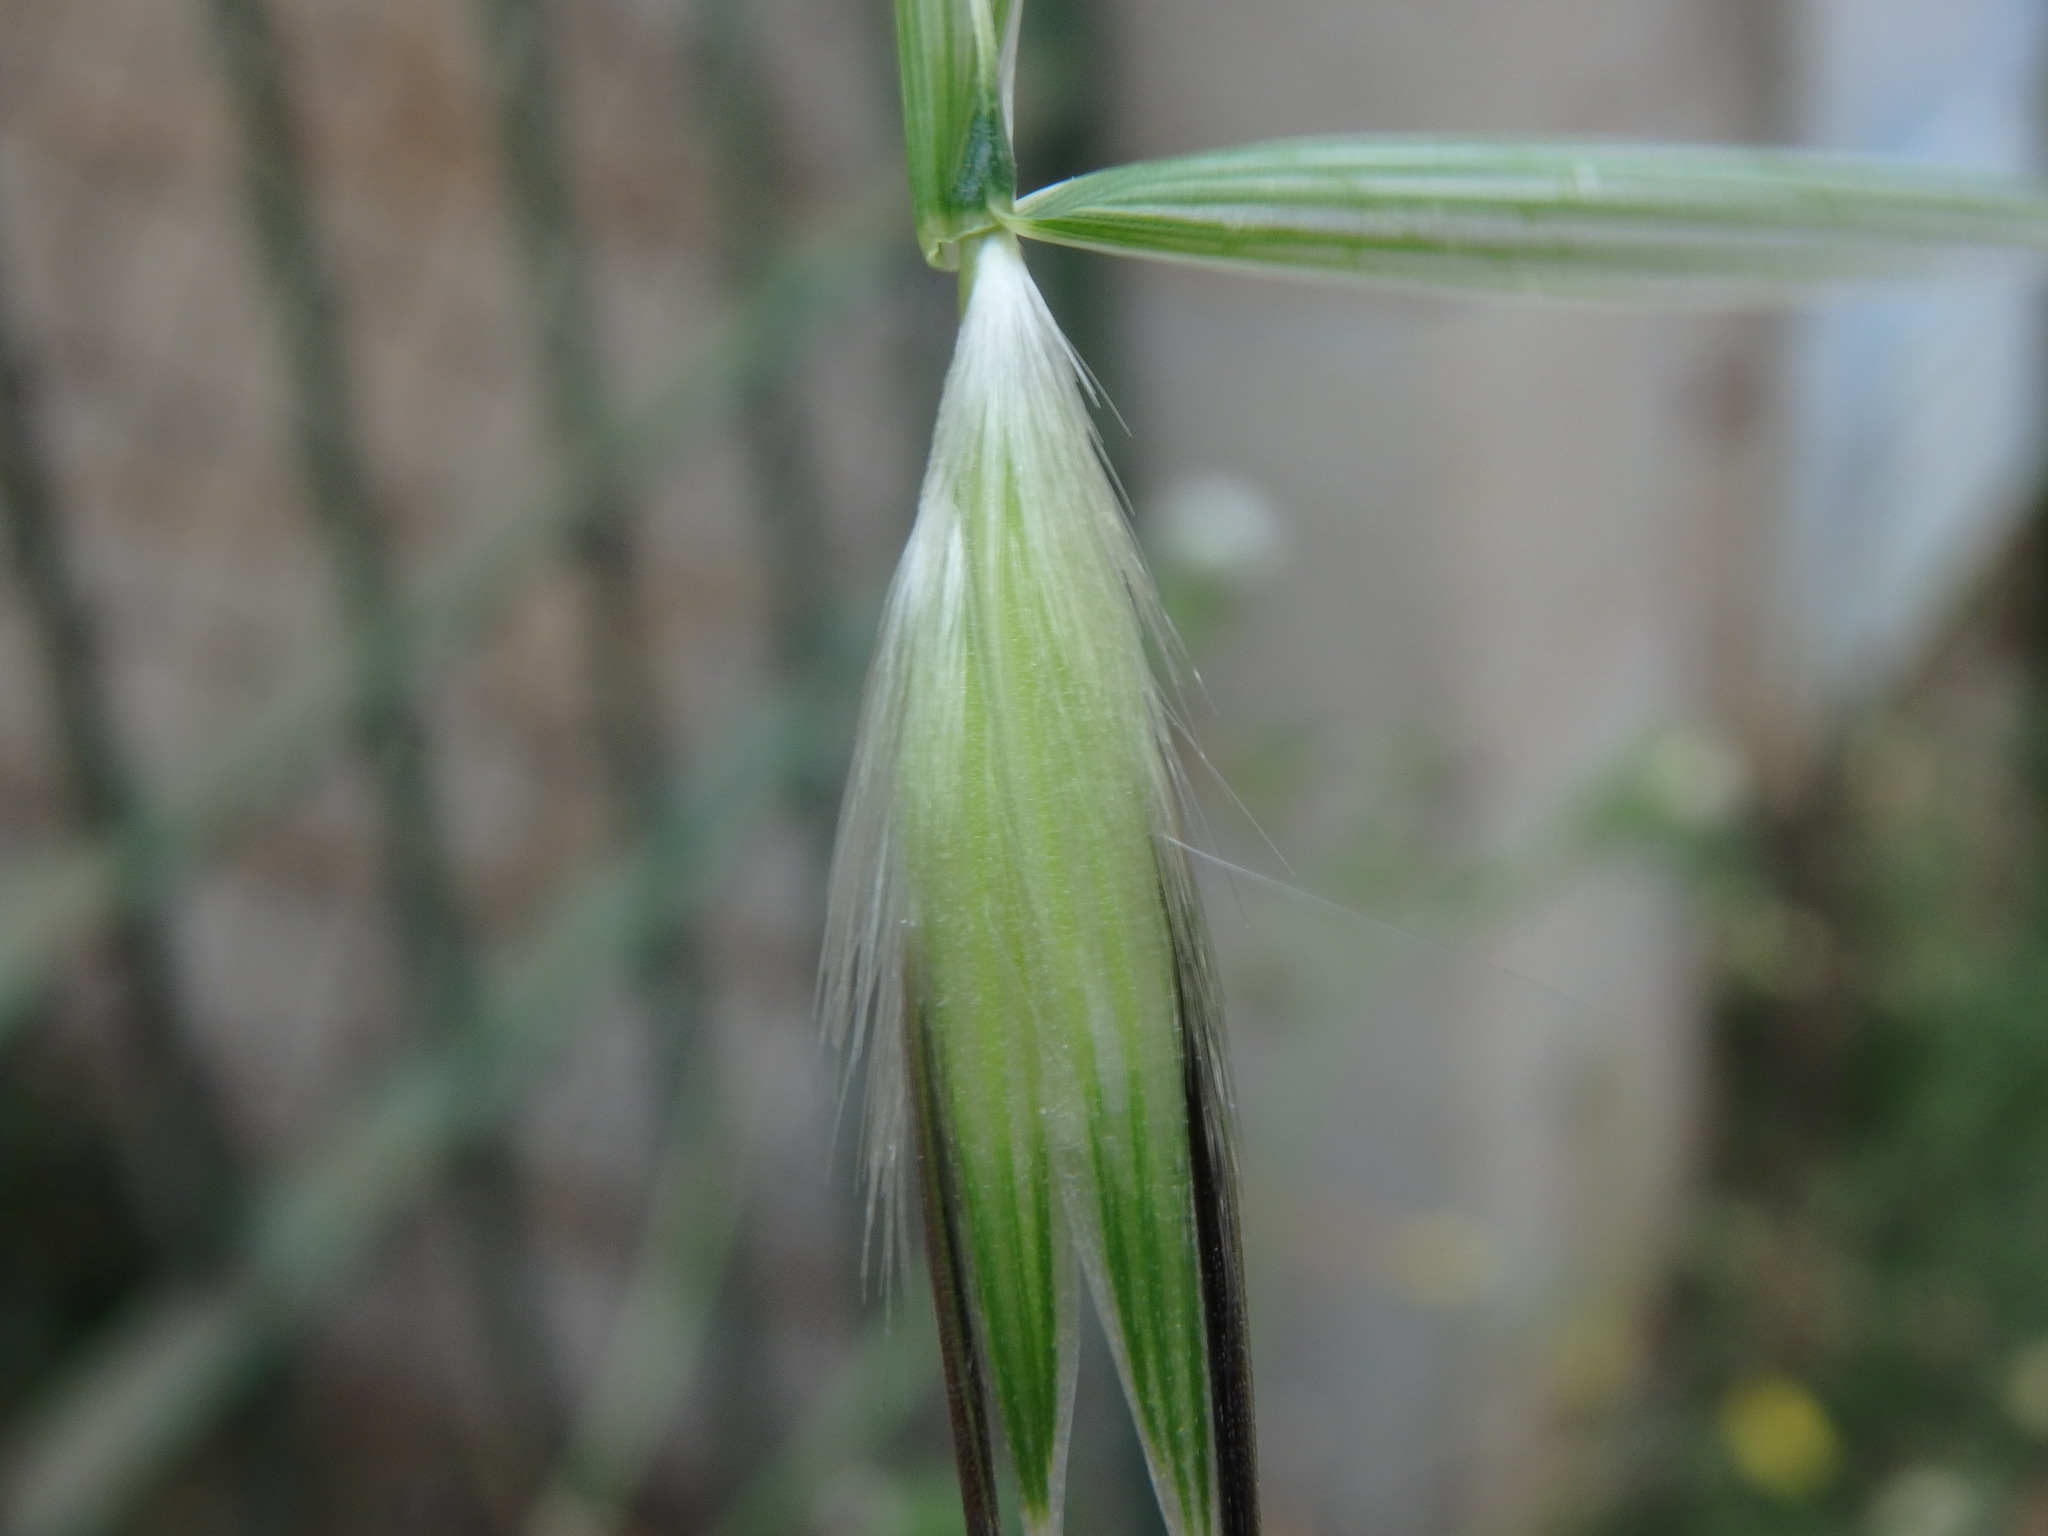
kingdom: Plantae
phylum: Tracheophyta
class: Liliopsida
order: Poales
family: Poaceae
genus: Avena
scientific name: Avena sterilis
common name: Animated oat
